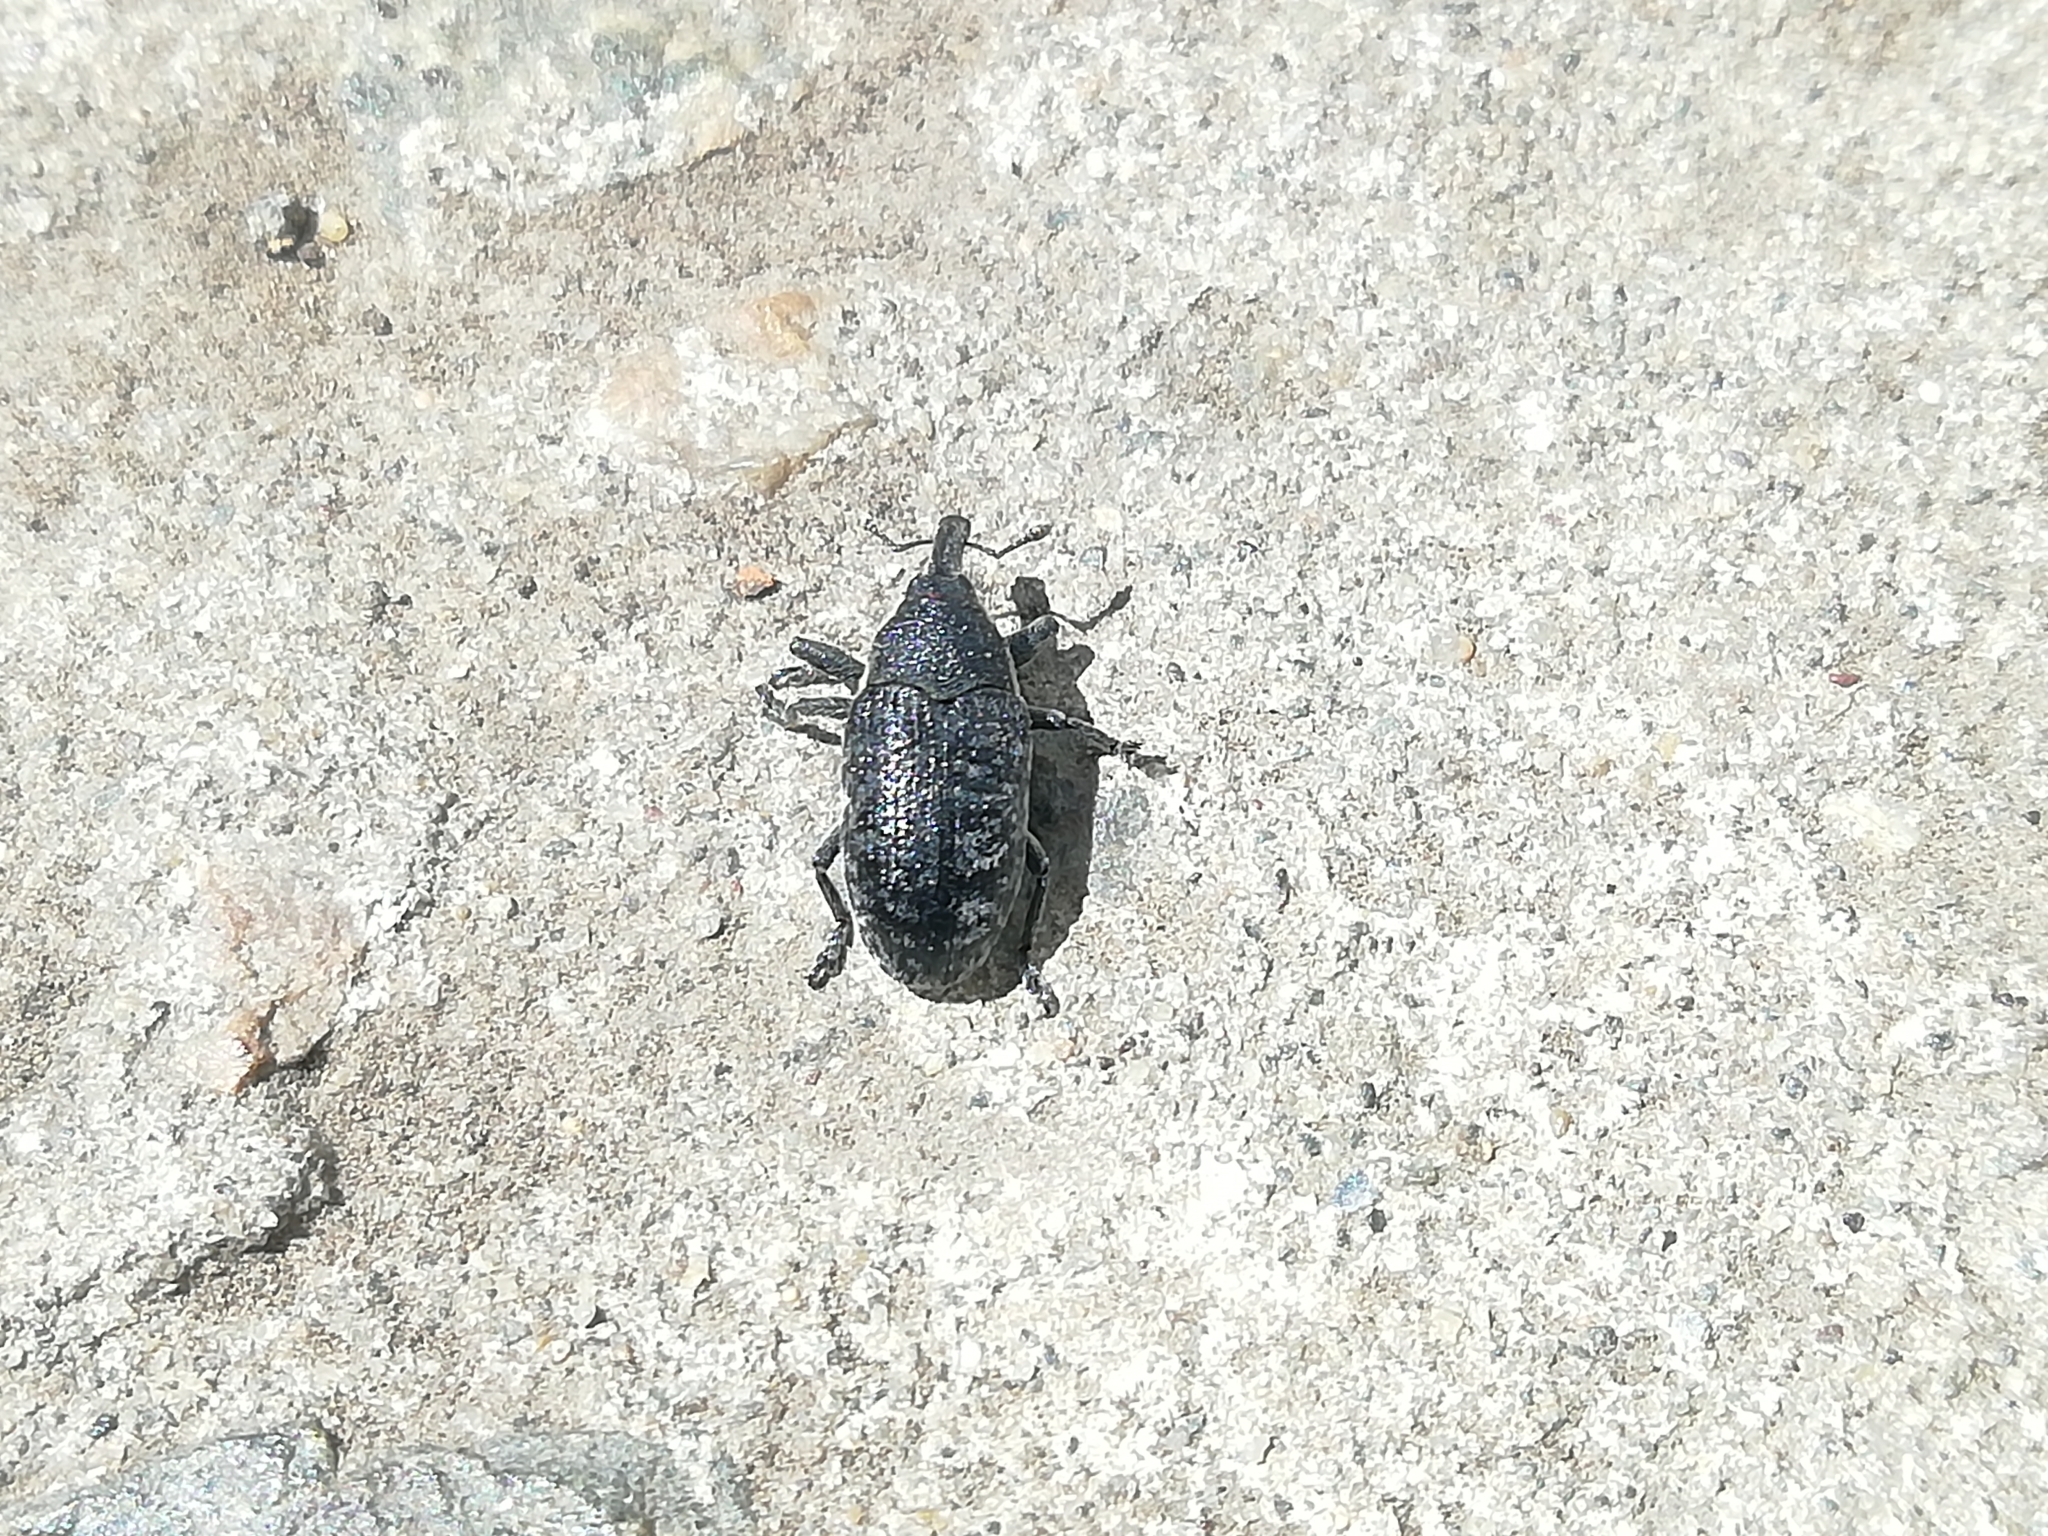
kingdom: Animalia
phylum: Arthropoda
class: Insecta
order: Coleoptera
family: Curculionidae
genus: Larinus
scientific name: Larinus carlinae
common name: Weevil
